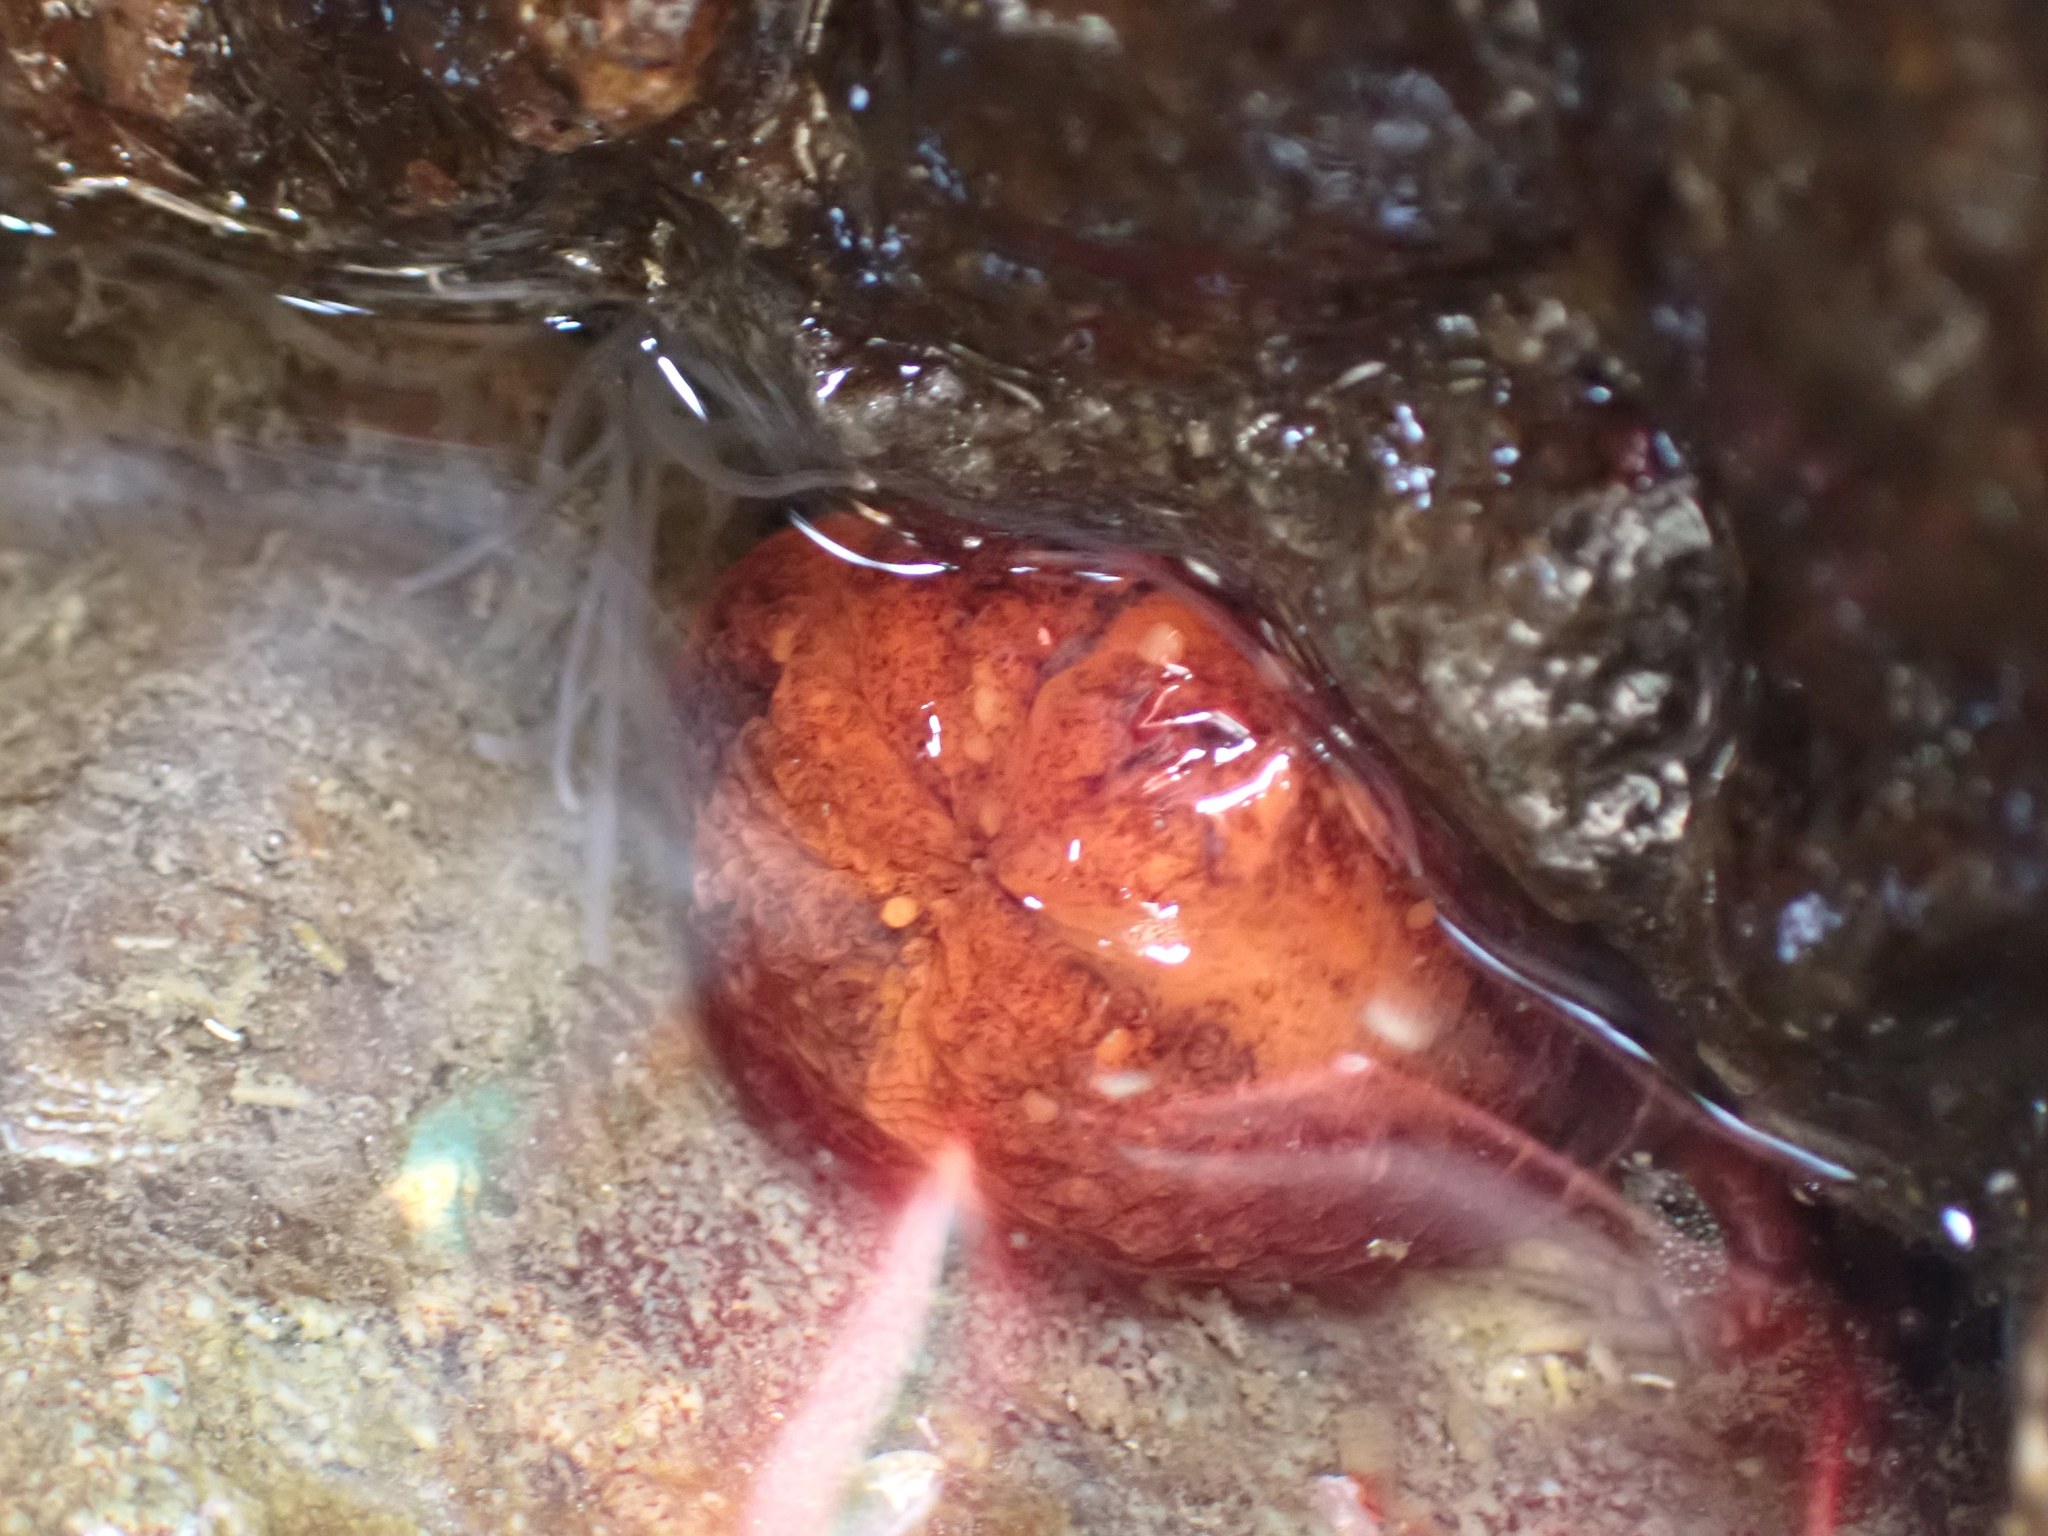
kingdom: Animalia
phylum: Echinodermata
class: Holothuroidea
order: Dendrochirotida
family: Cucumariidae
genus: Cucumaria
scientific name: Cucumaria miniata
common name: Orange sea cucumber
